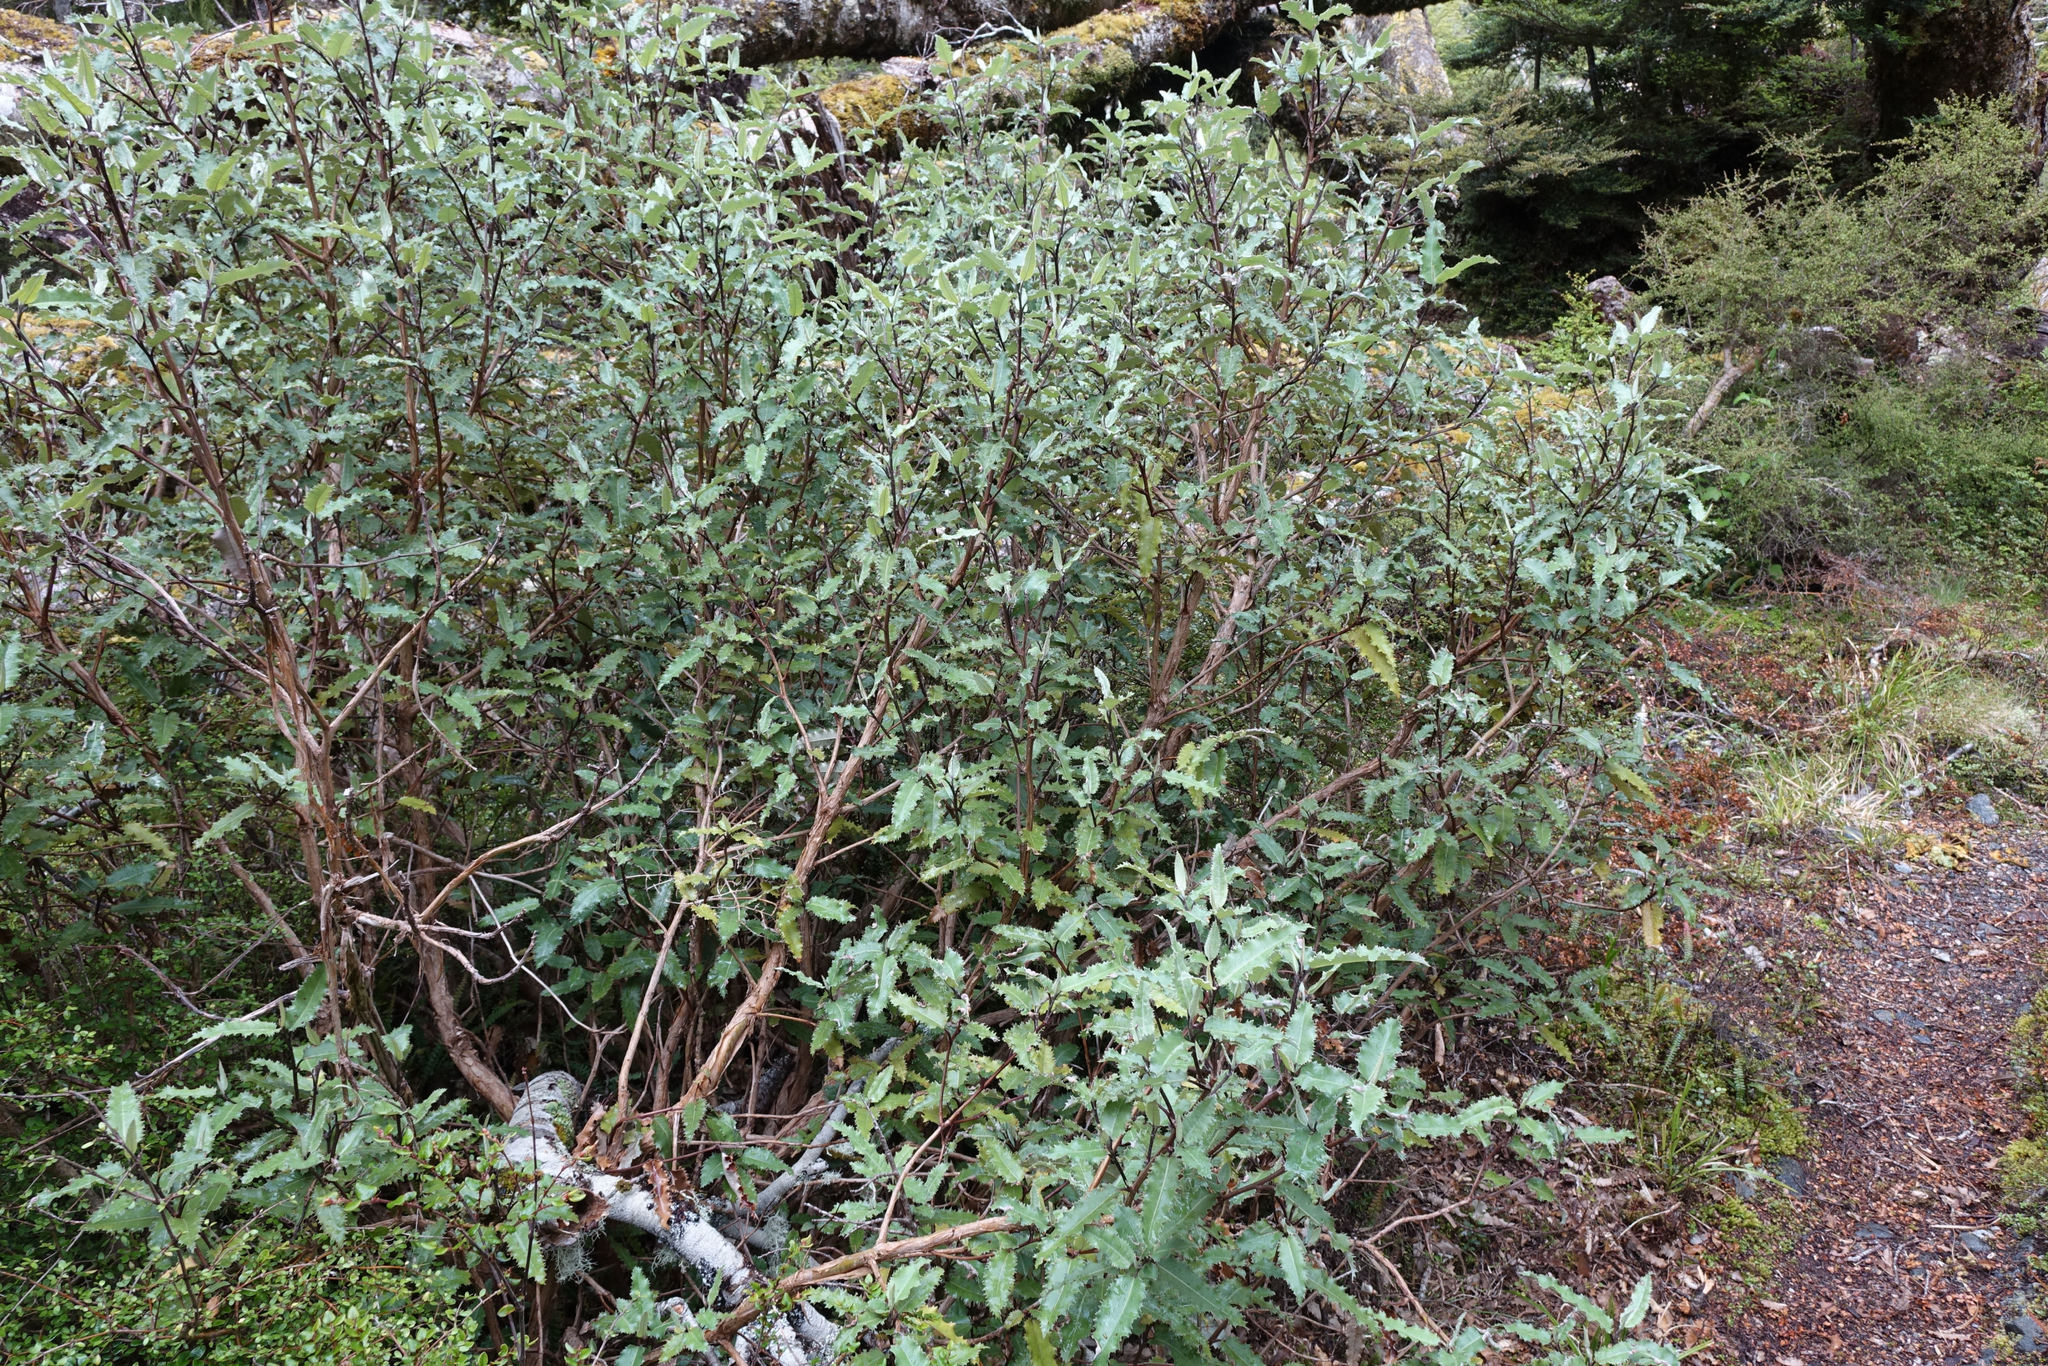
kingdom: Plantae
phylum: Tracheophyta
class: Magnoliopsida
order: Asterales
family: Asteraceae
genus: Olearia
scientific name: Olearia ilicifolia
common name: Maori-holly
